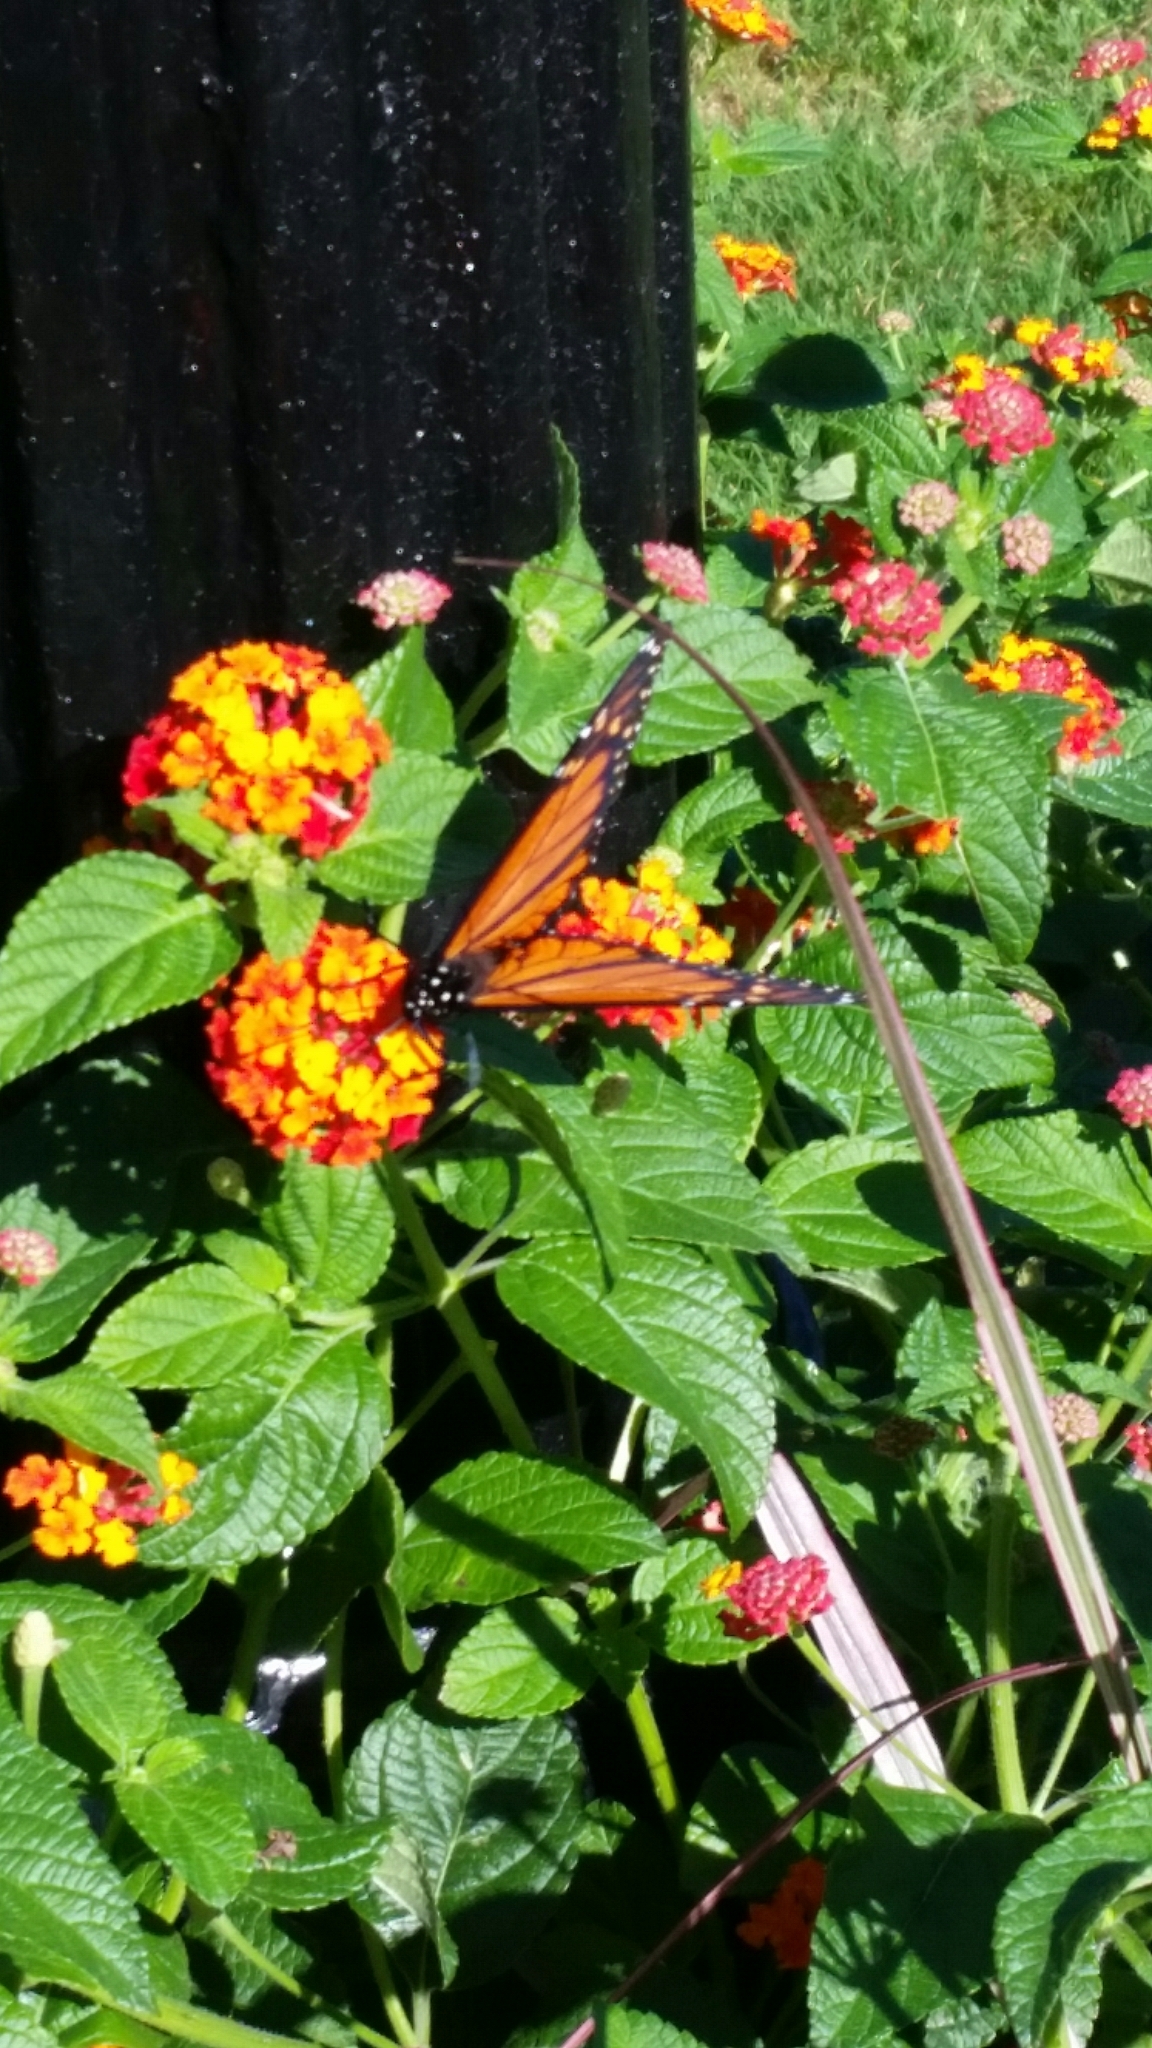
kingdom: Animalia
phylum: Arthropoda
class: Insecta
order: Lepidoptera
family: Nymphalidae
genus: Danaus
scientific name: Danaus plexippus
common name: Monarch
